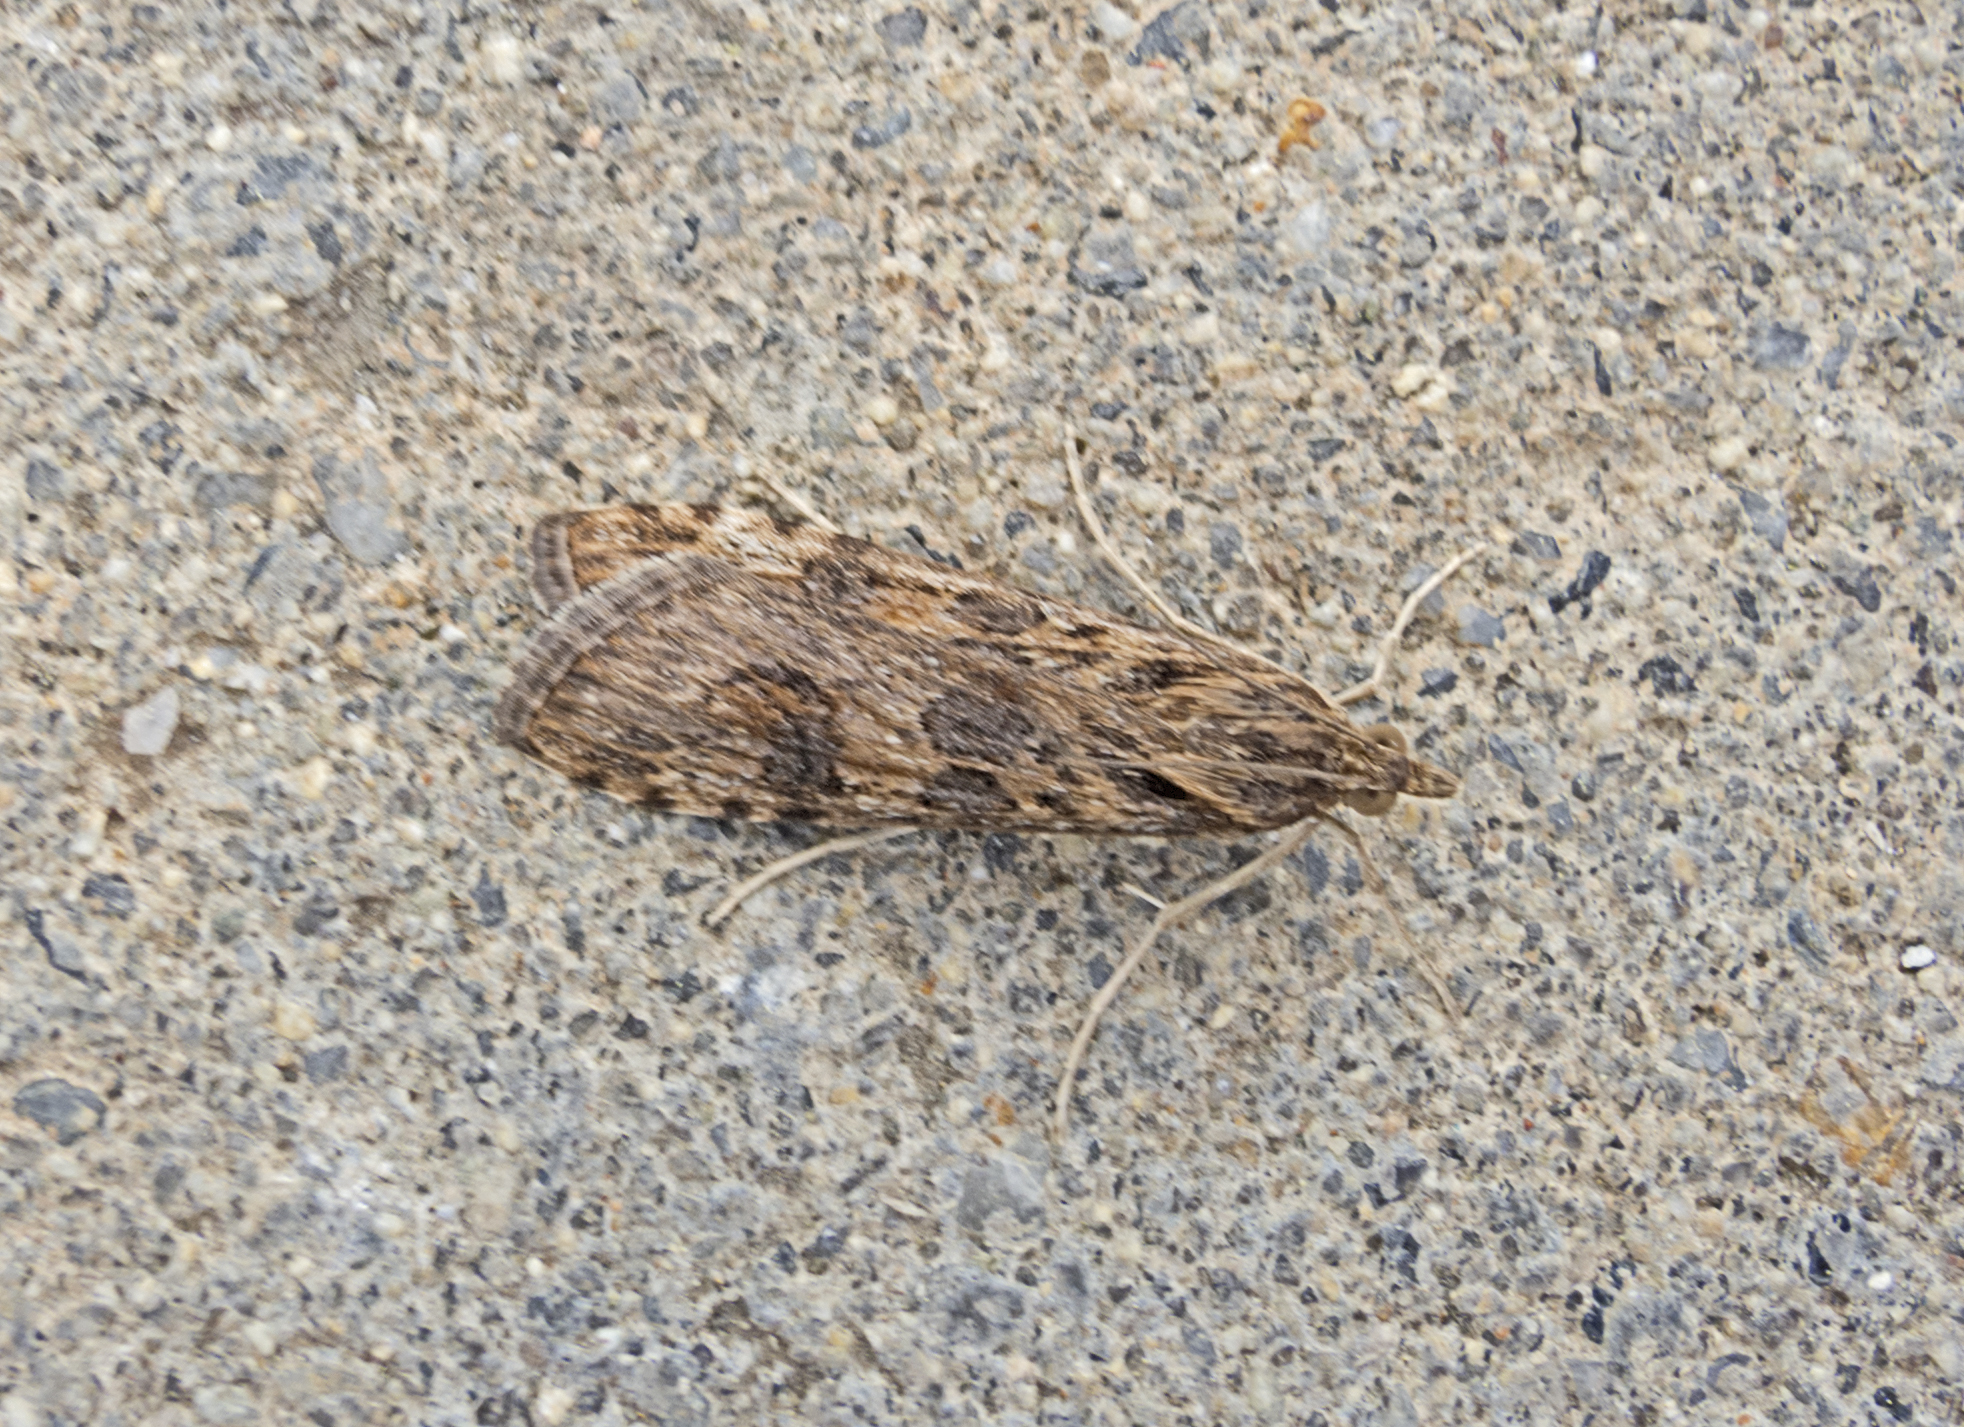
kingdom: Animalia
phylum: Arthropoda
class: Insecta
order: Lepidoptera
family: Crambidae
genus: Nomophila
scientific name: Nomophila noctuella
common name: Rush veneer
